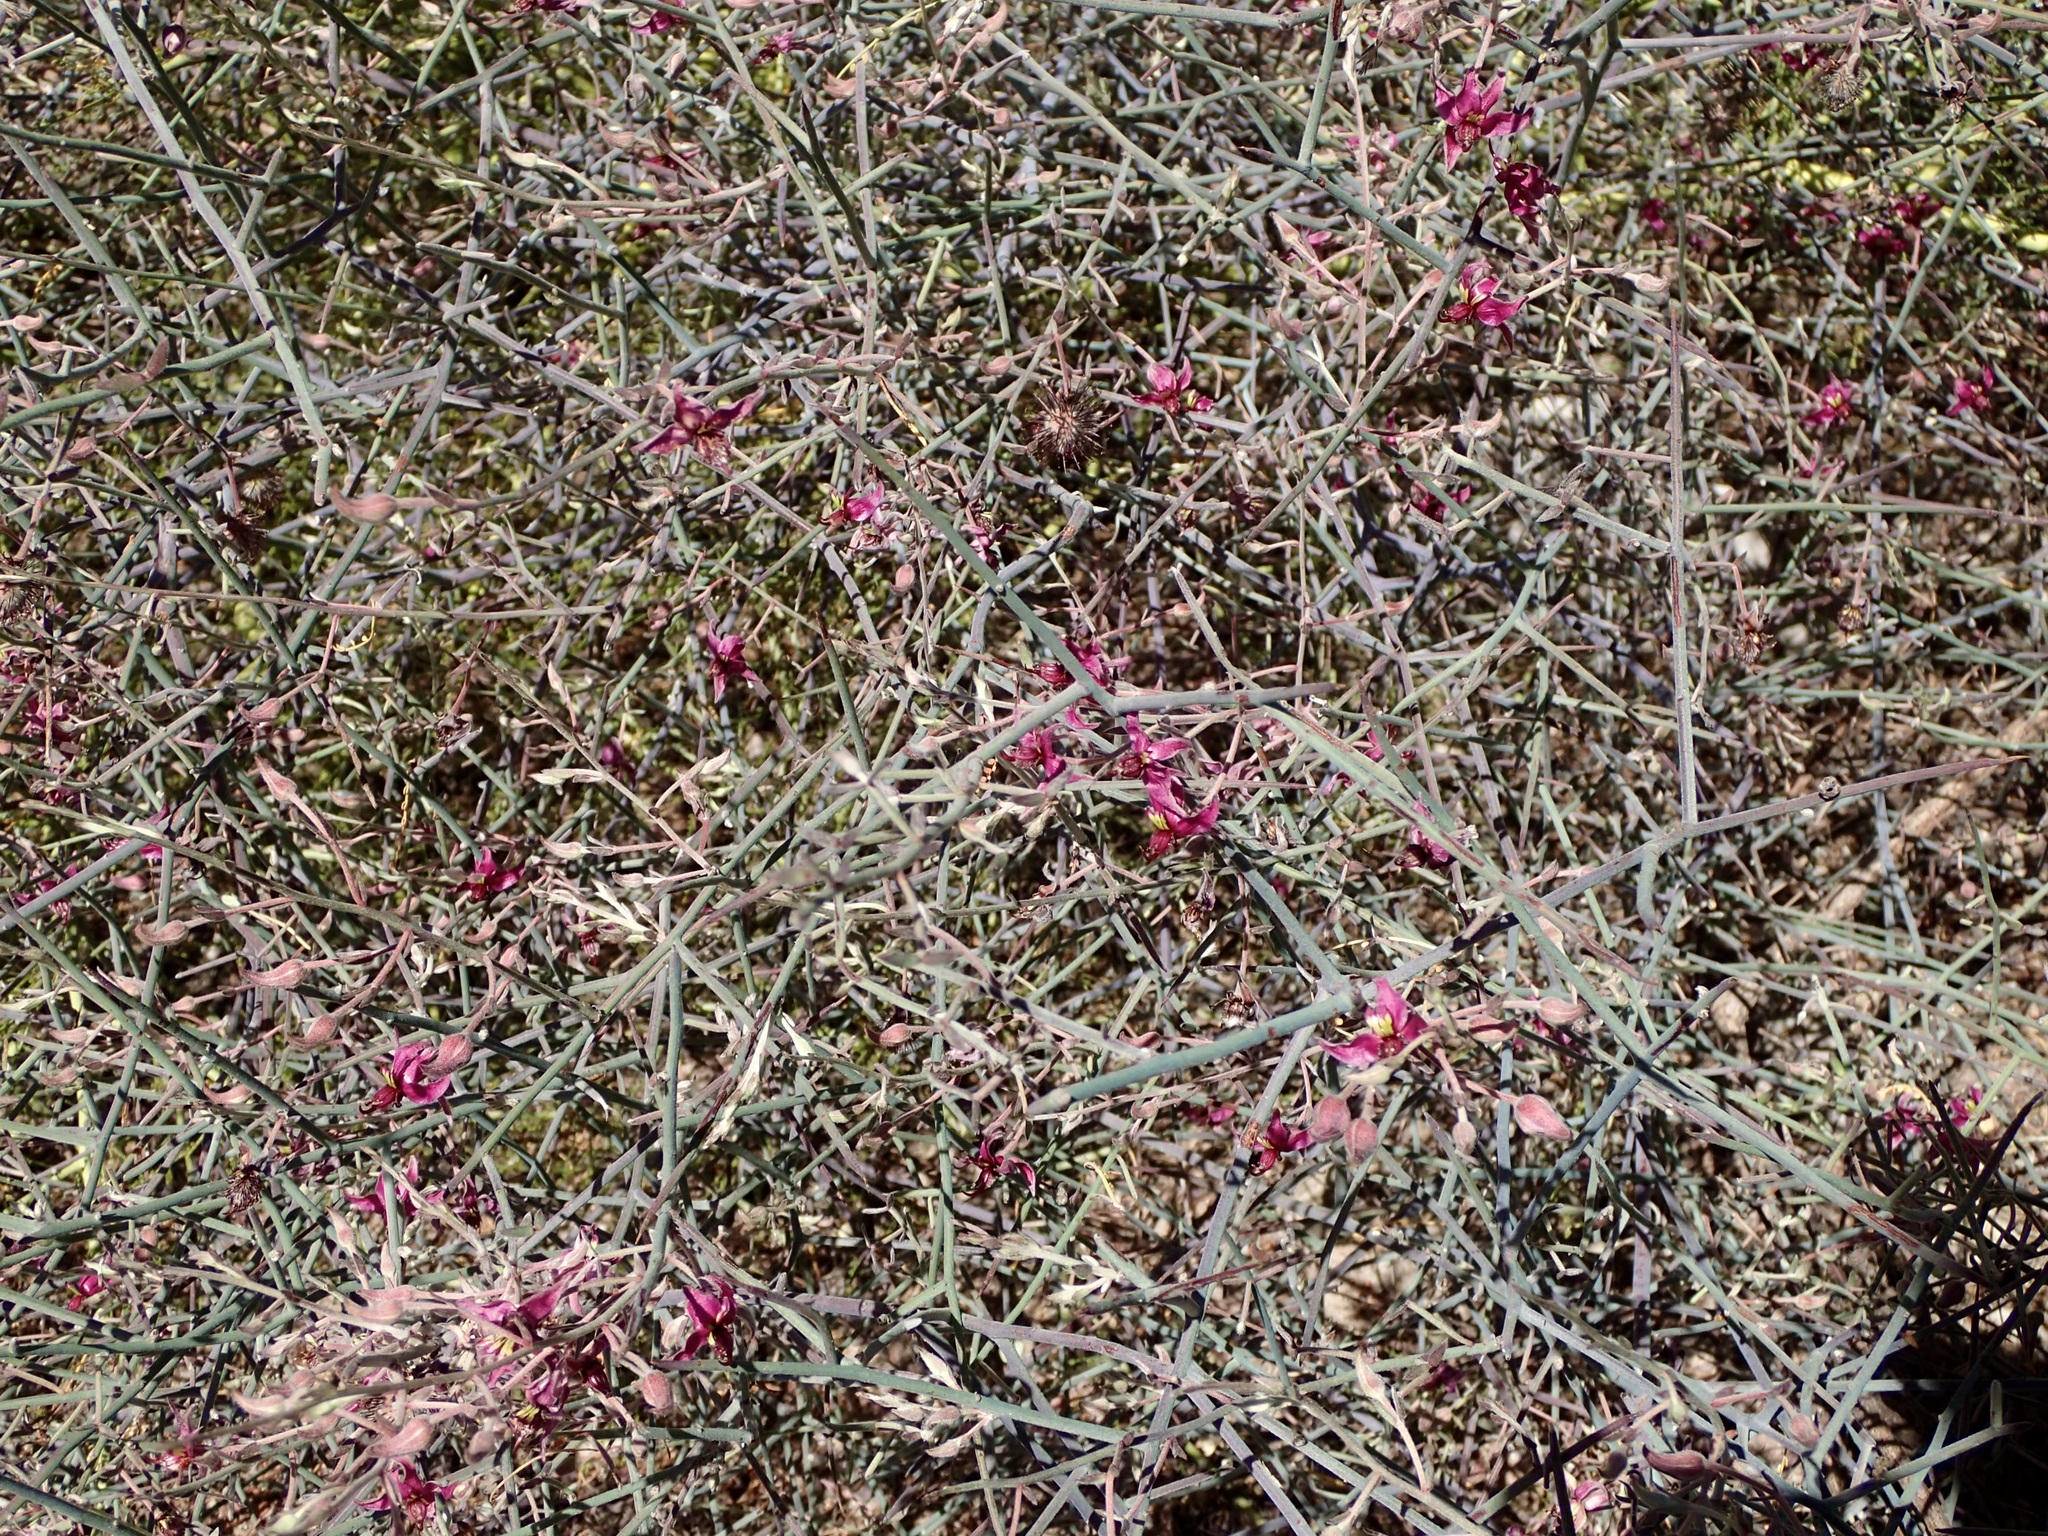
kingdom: Plantae
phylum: Tracheophyta
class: Magnoliopsida
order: Zygophyllales
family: Krameriaceae
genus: Krameria
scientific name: Krameria bicolor
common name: White ratany
